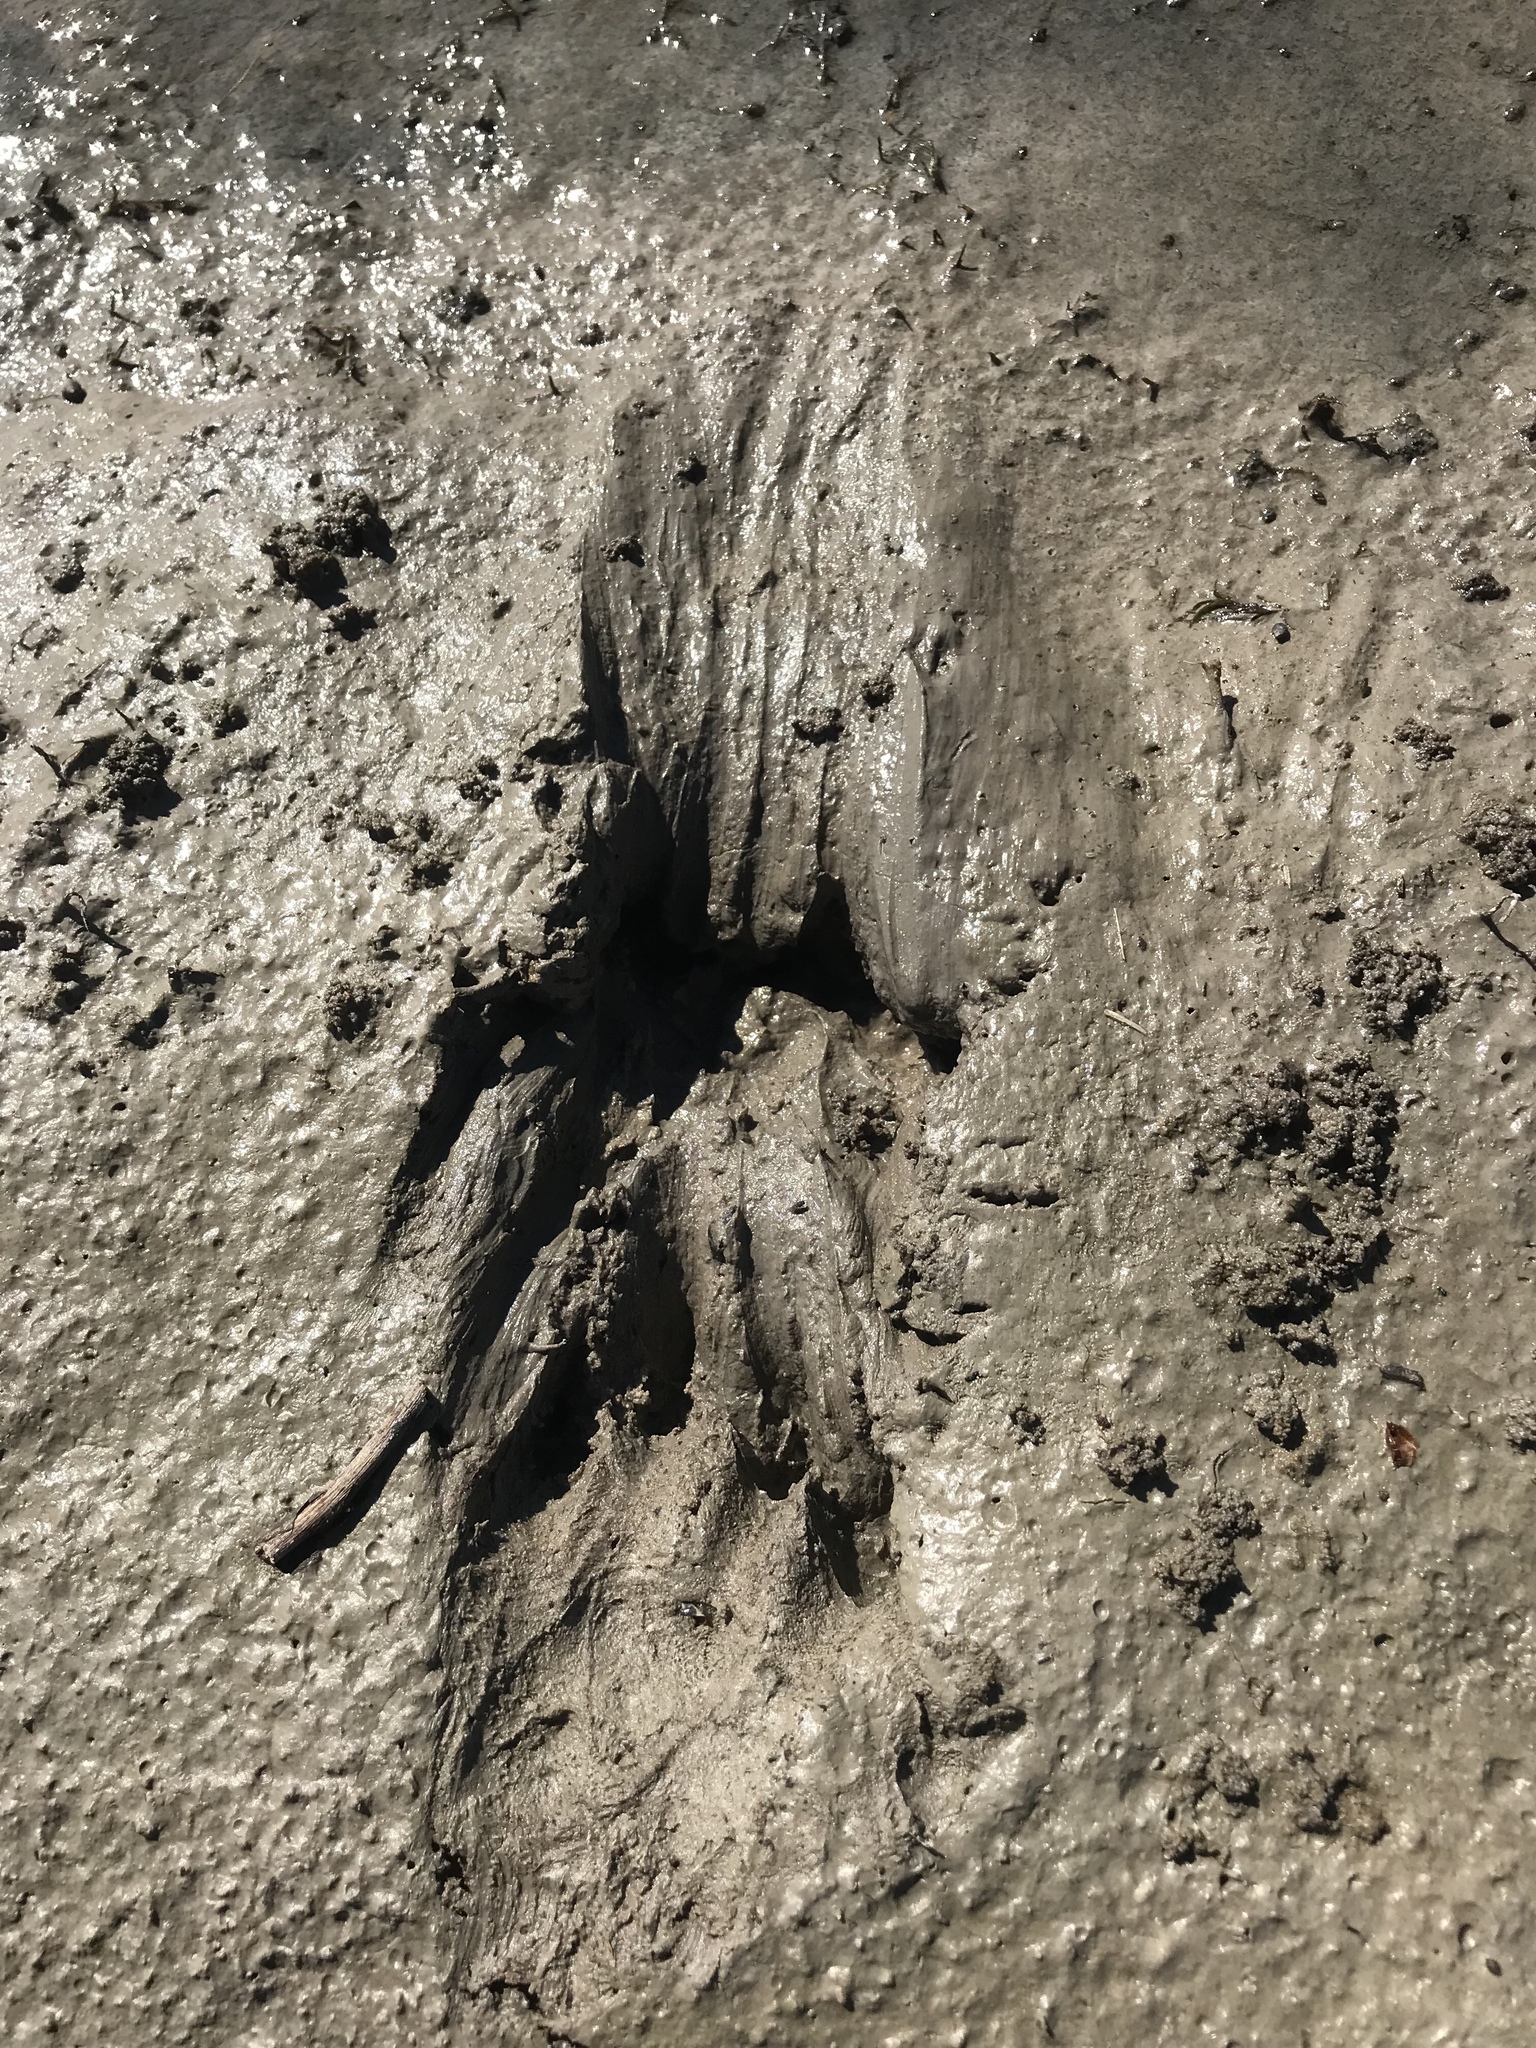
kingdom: Animalia
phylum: Chordata
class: Mammalia
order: Carnivora
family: Mustelidae
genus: Lontra
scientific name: Lontra canadensis
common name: North american river otter
